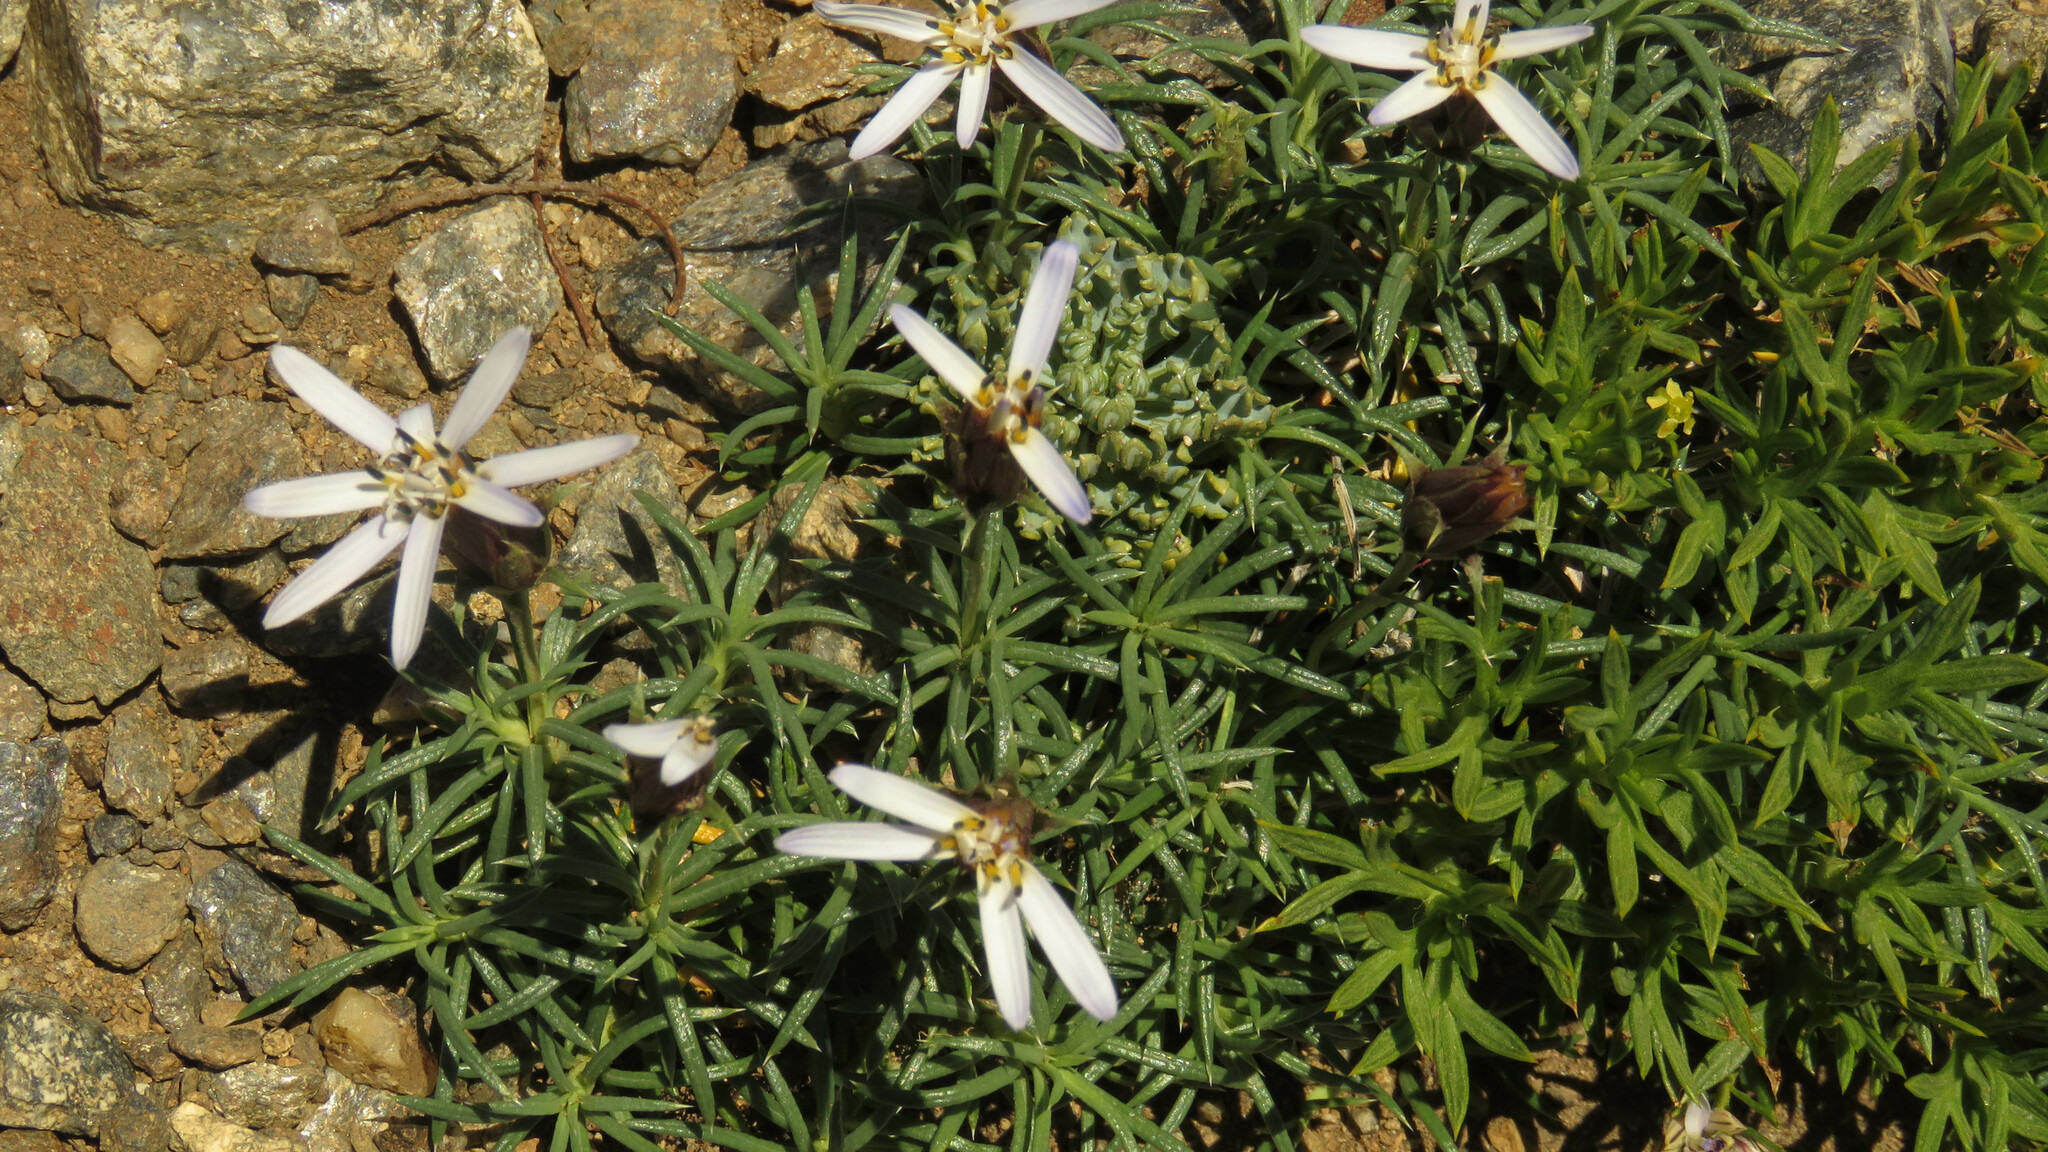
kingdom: Plantae
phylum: Tracheophyta
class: Magnoliopsida
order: Asterales
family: Asteraceae
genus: Perezia
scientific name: Perezia recurvata
